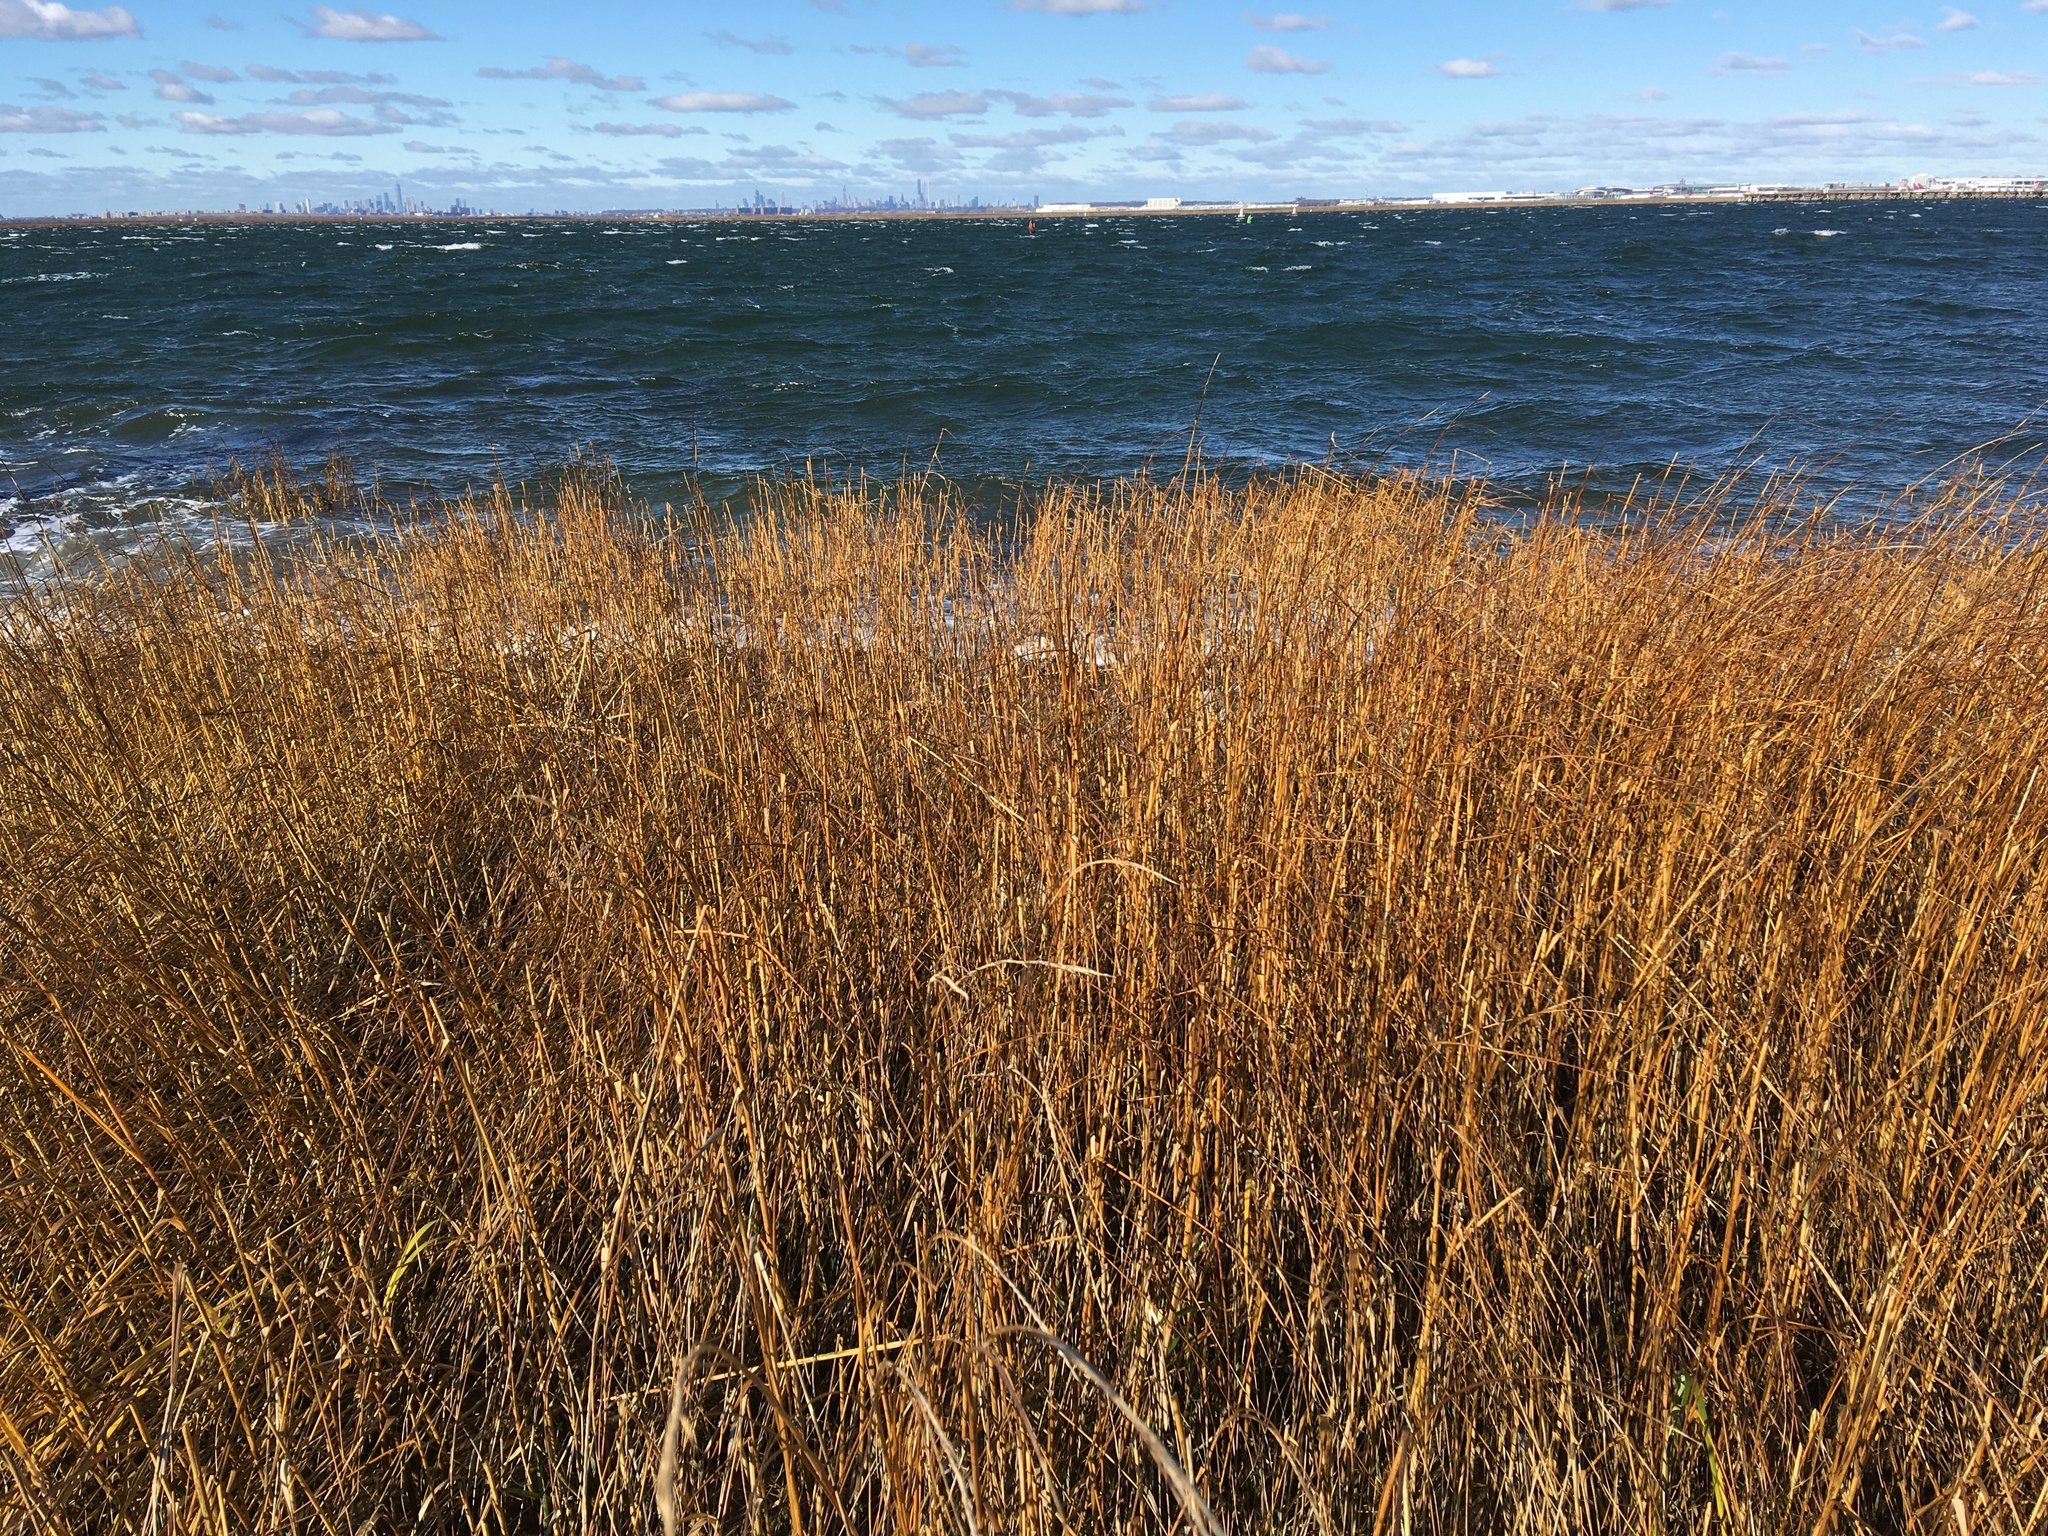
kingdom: Plantae
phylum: Tracheophyta
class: Liliopsida
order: Poales
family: Poaceae
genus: Sporobolus
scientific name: Sporobolus alterniflorus
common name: Atlantic cordgrass
